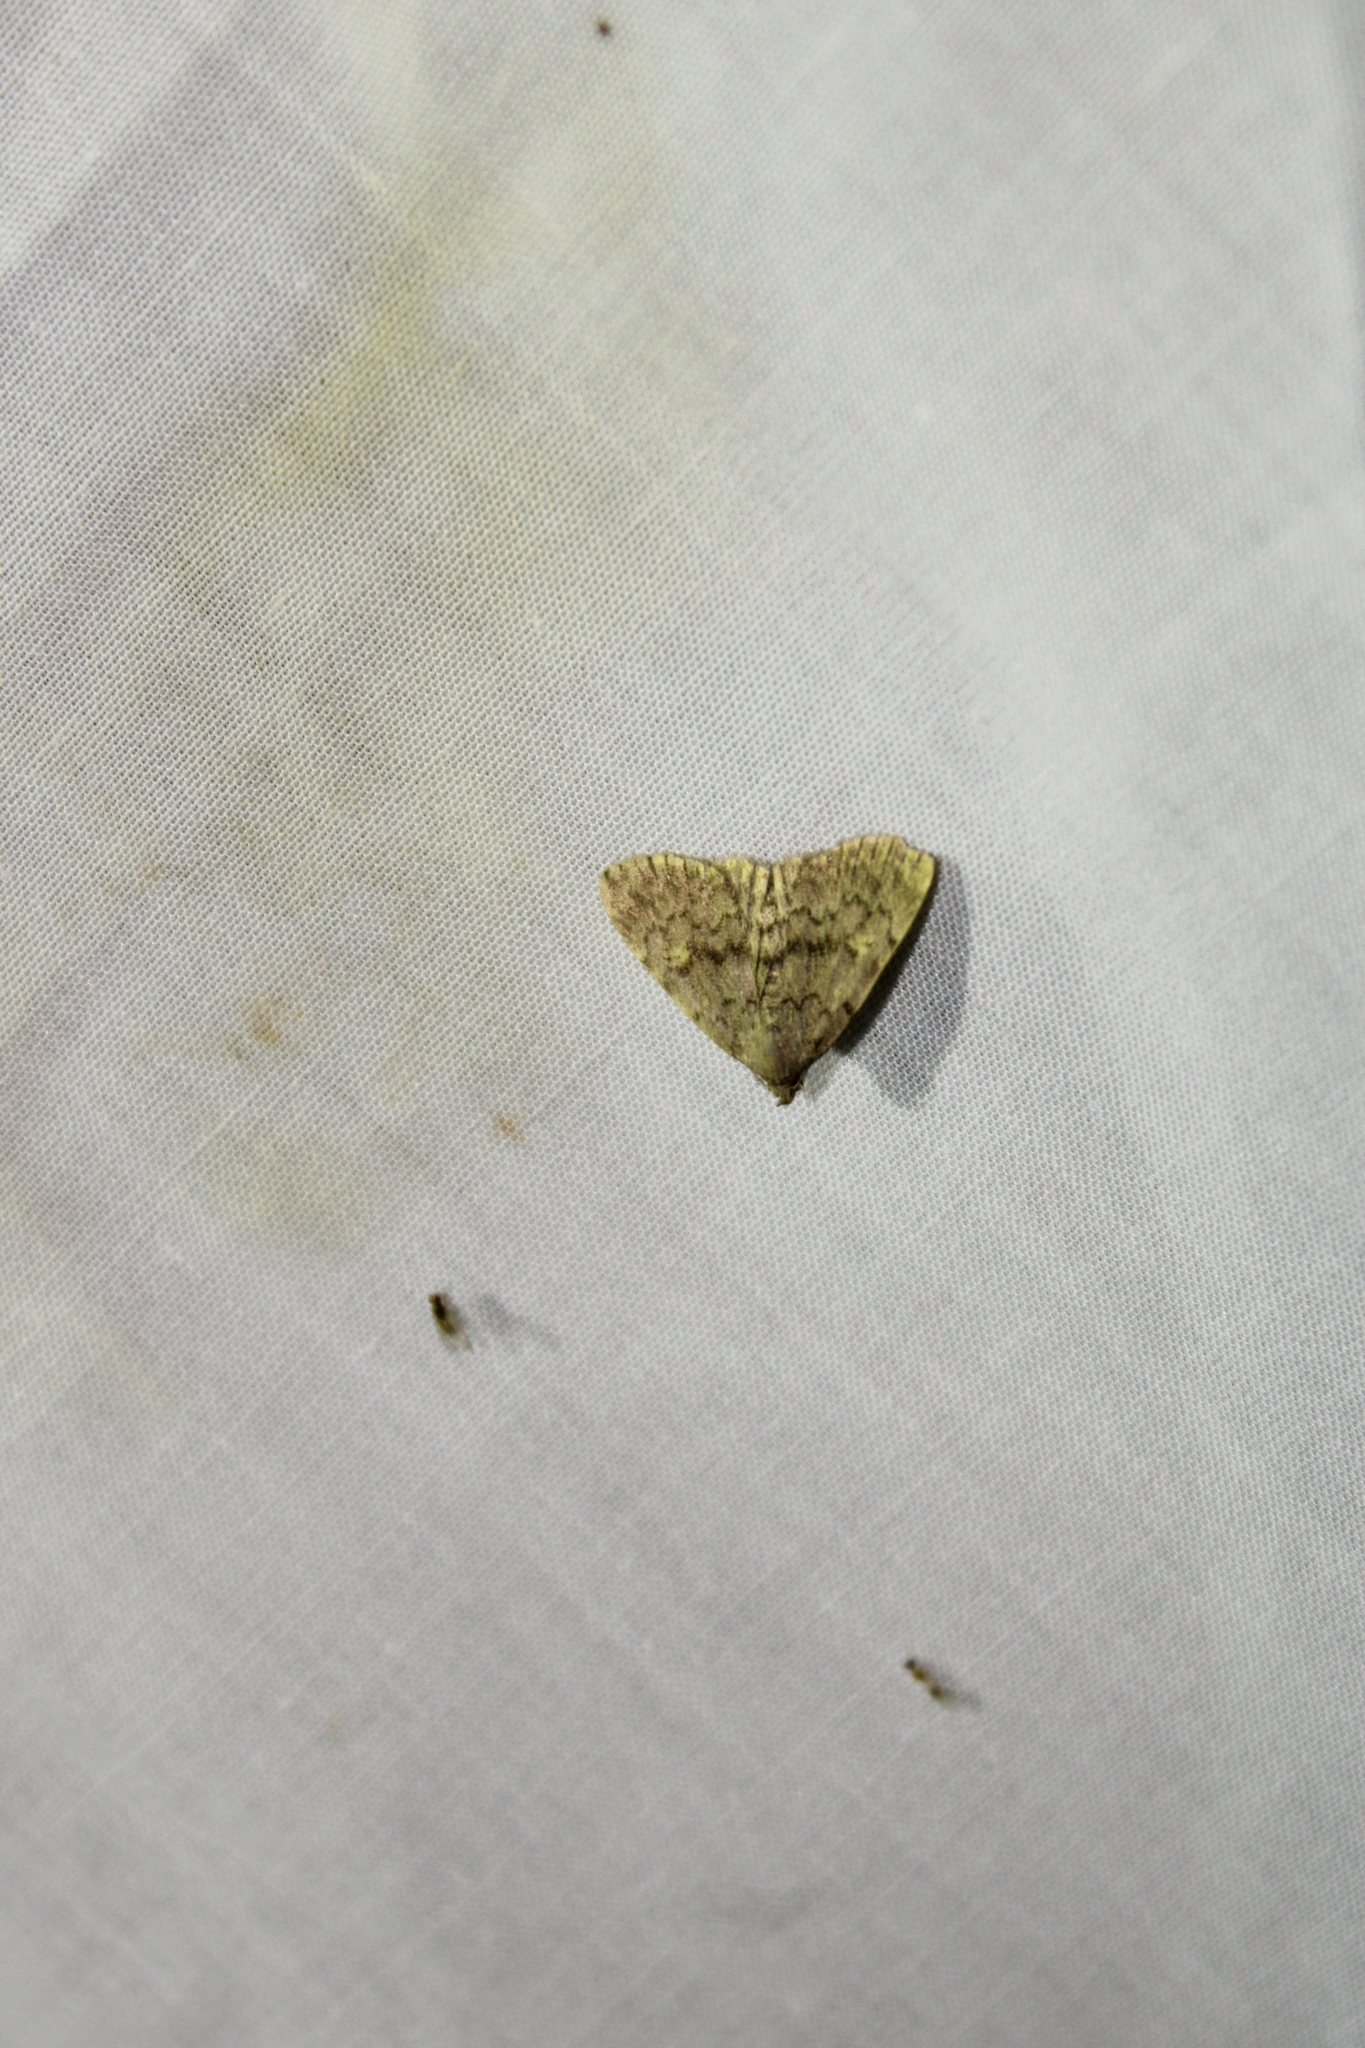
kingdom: Animalia
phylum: Arthropoda
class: Insecta
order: Lepidoptera
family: Erebidae
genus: Idia
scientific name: Idia aemula
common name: Common idia moth
